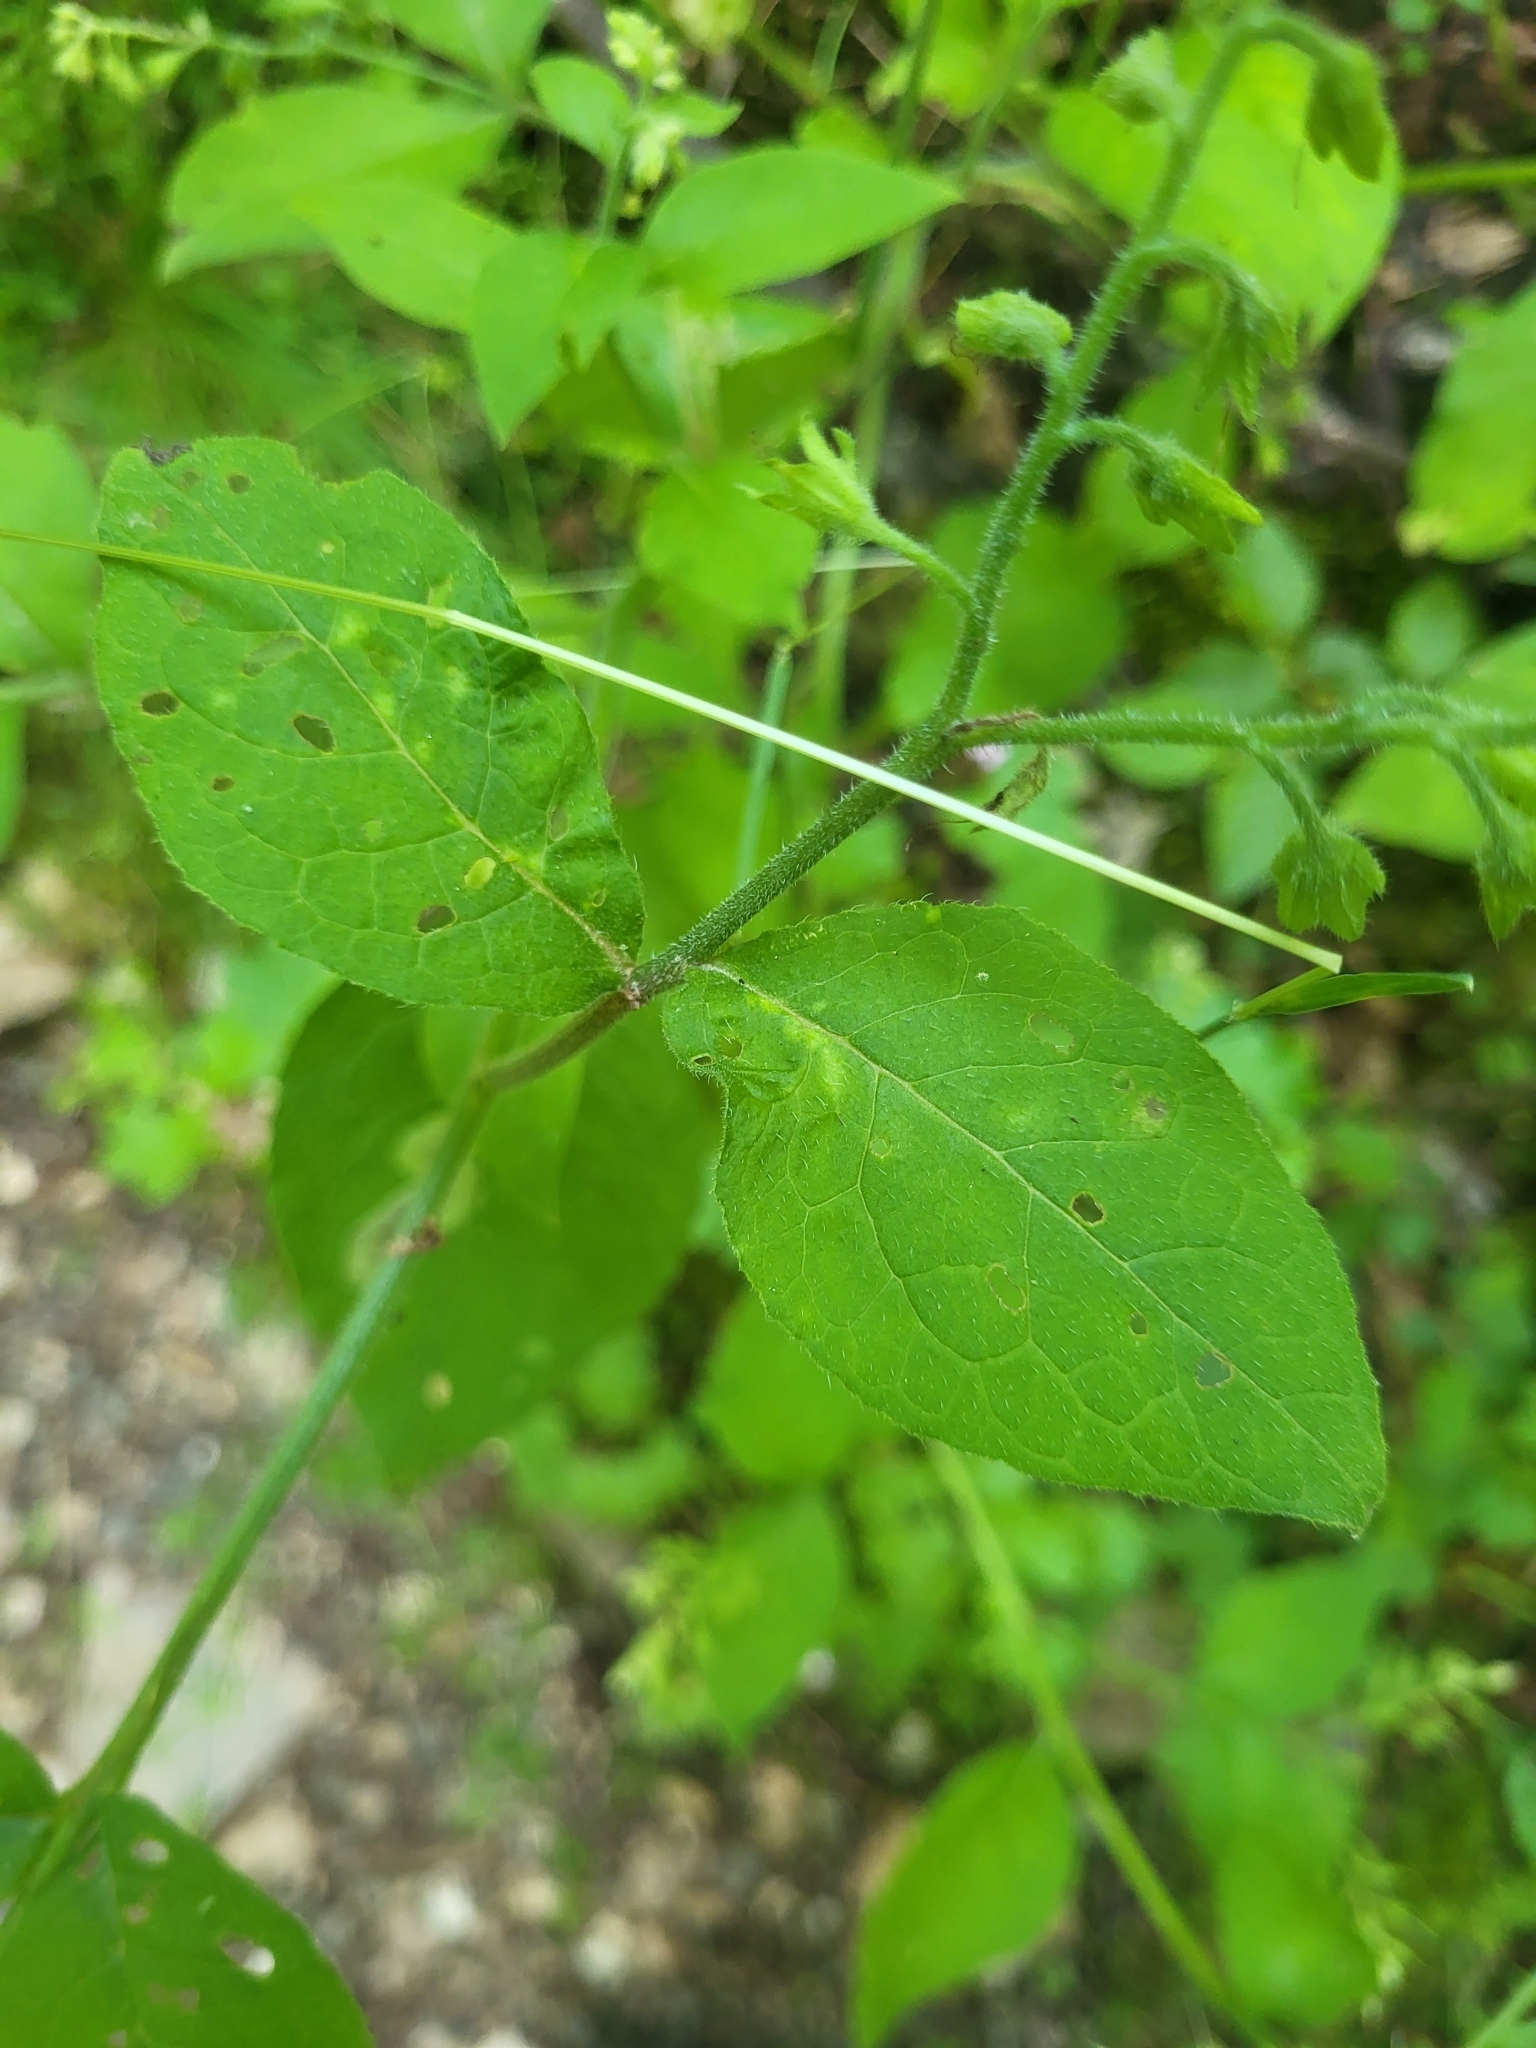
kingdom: Plantae
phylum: Tracheophyta
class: Magnoliopsida
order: Boraginales
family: Boraginaceae
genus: Symphytum
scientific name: Symphytum ottomanum
